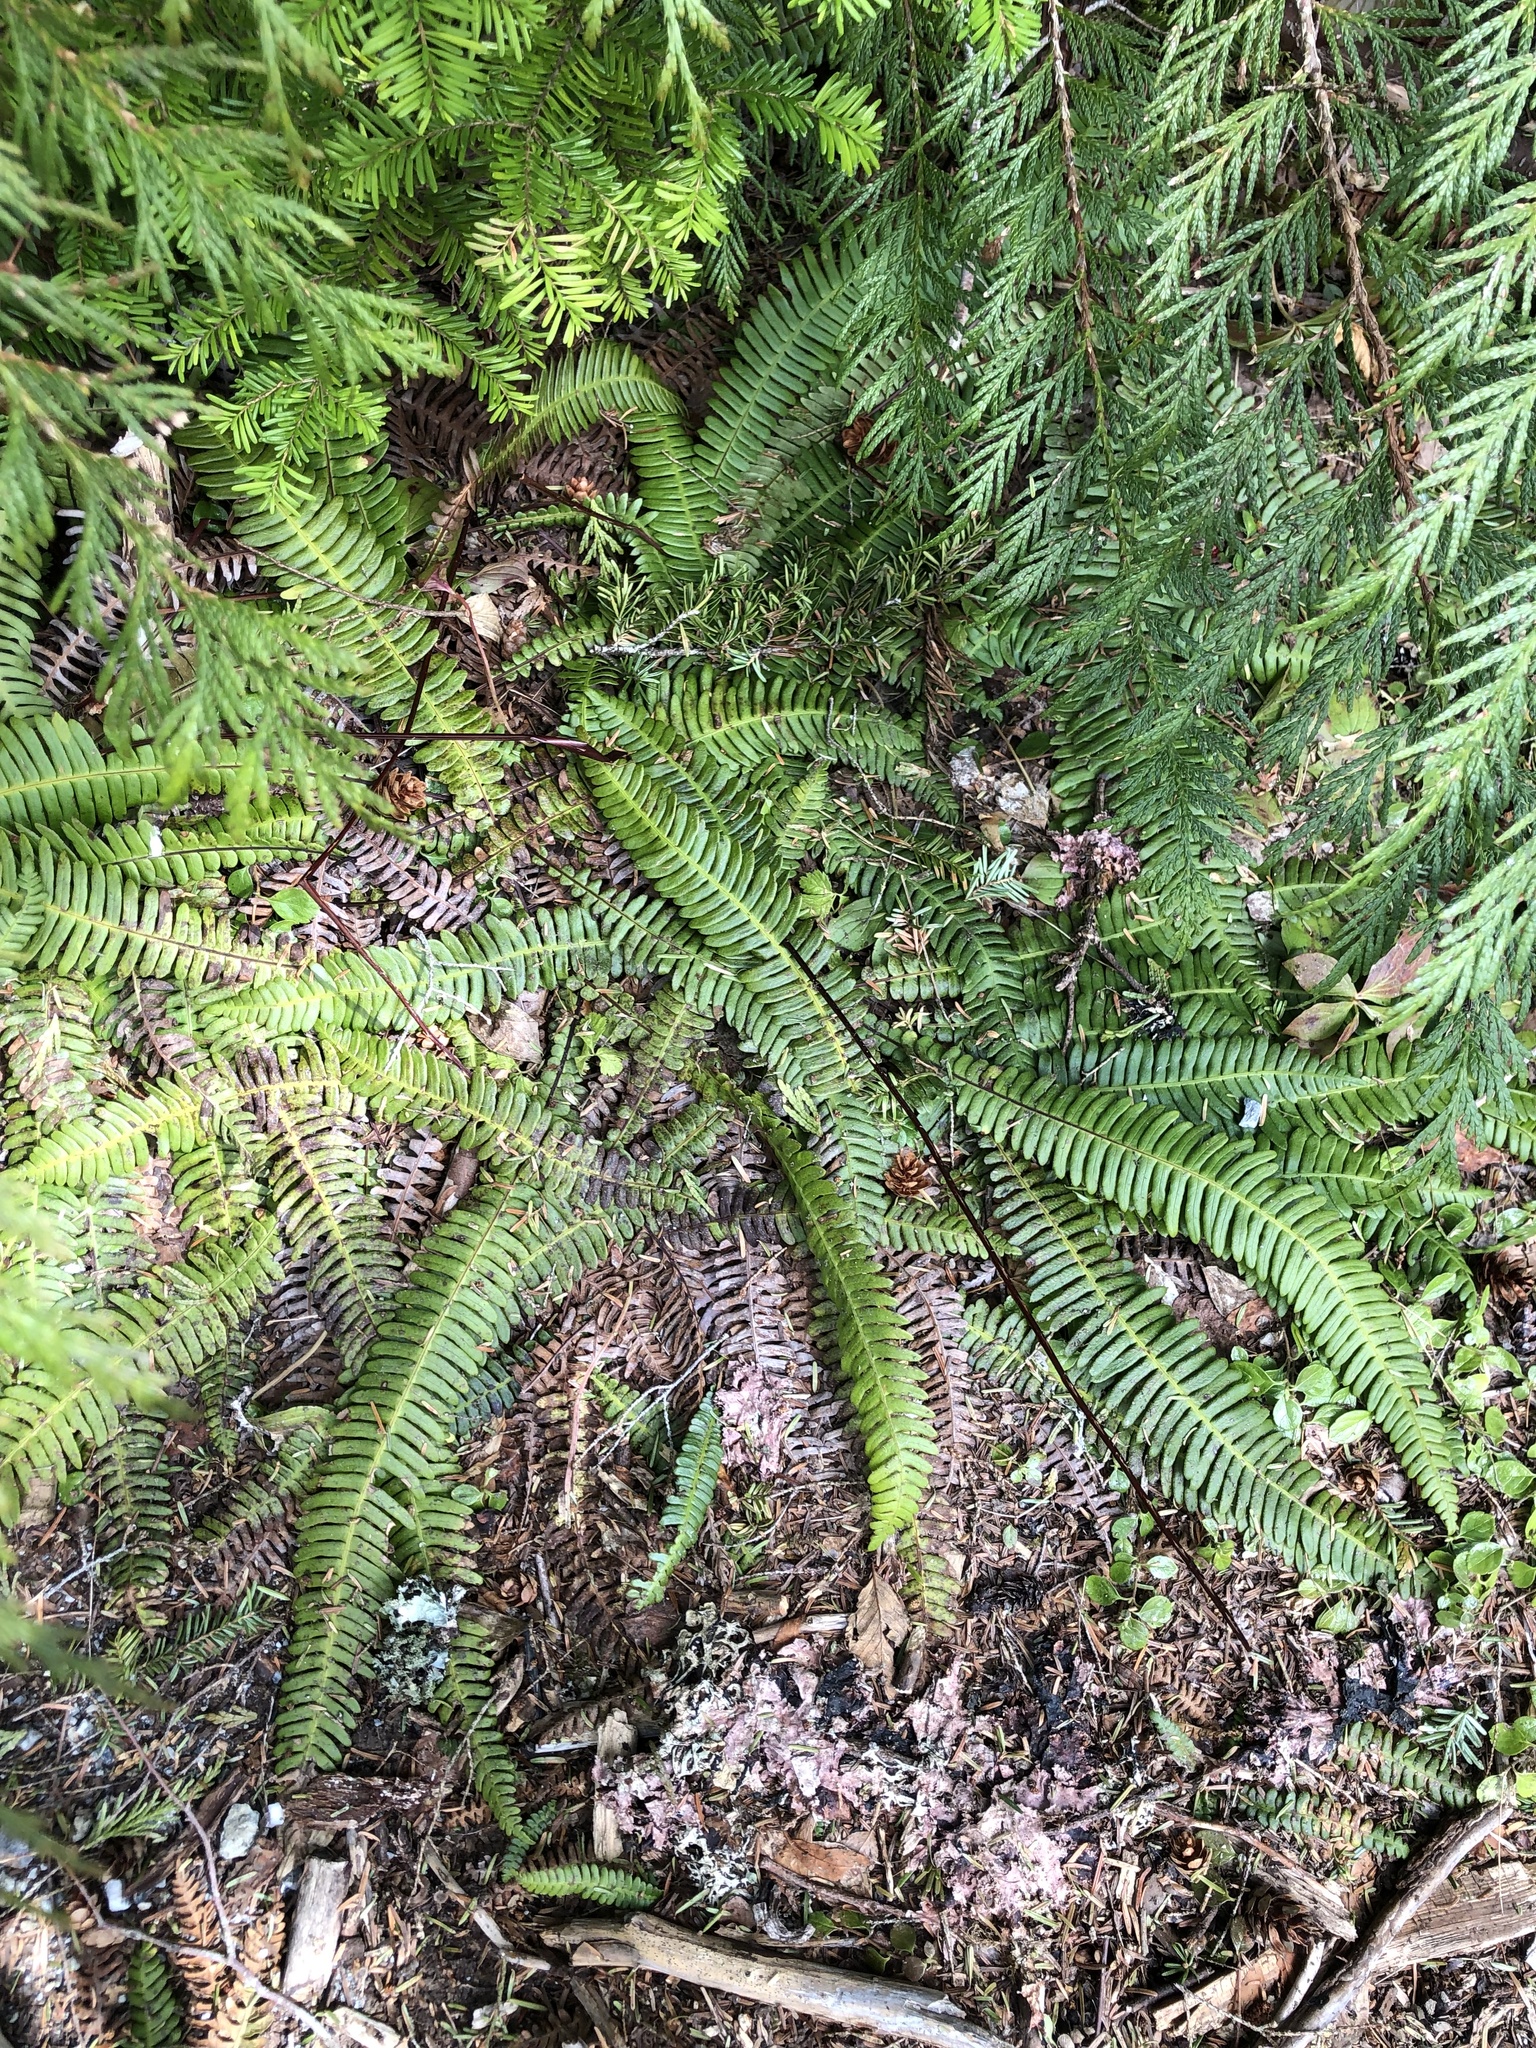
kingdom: Plantae
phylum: Tracheophyta
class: Polypodiopsida
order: Polypodiales
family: Blechnaceae
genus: Struthiopteris
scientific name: Struthiopteris spicant
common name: Deer fern
